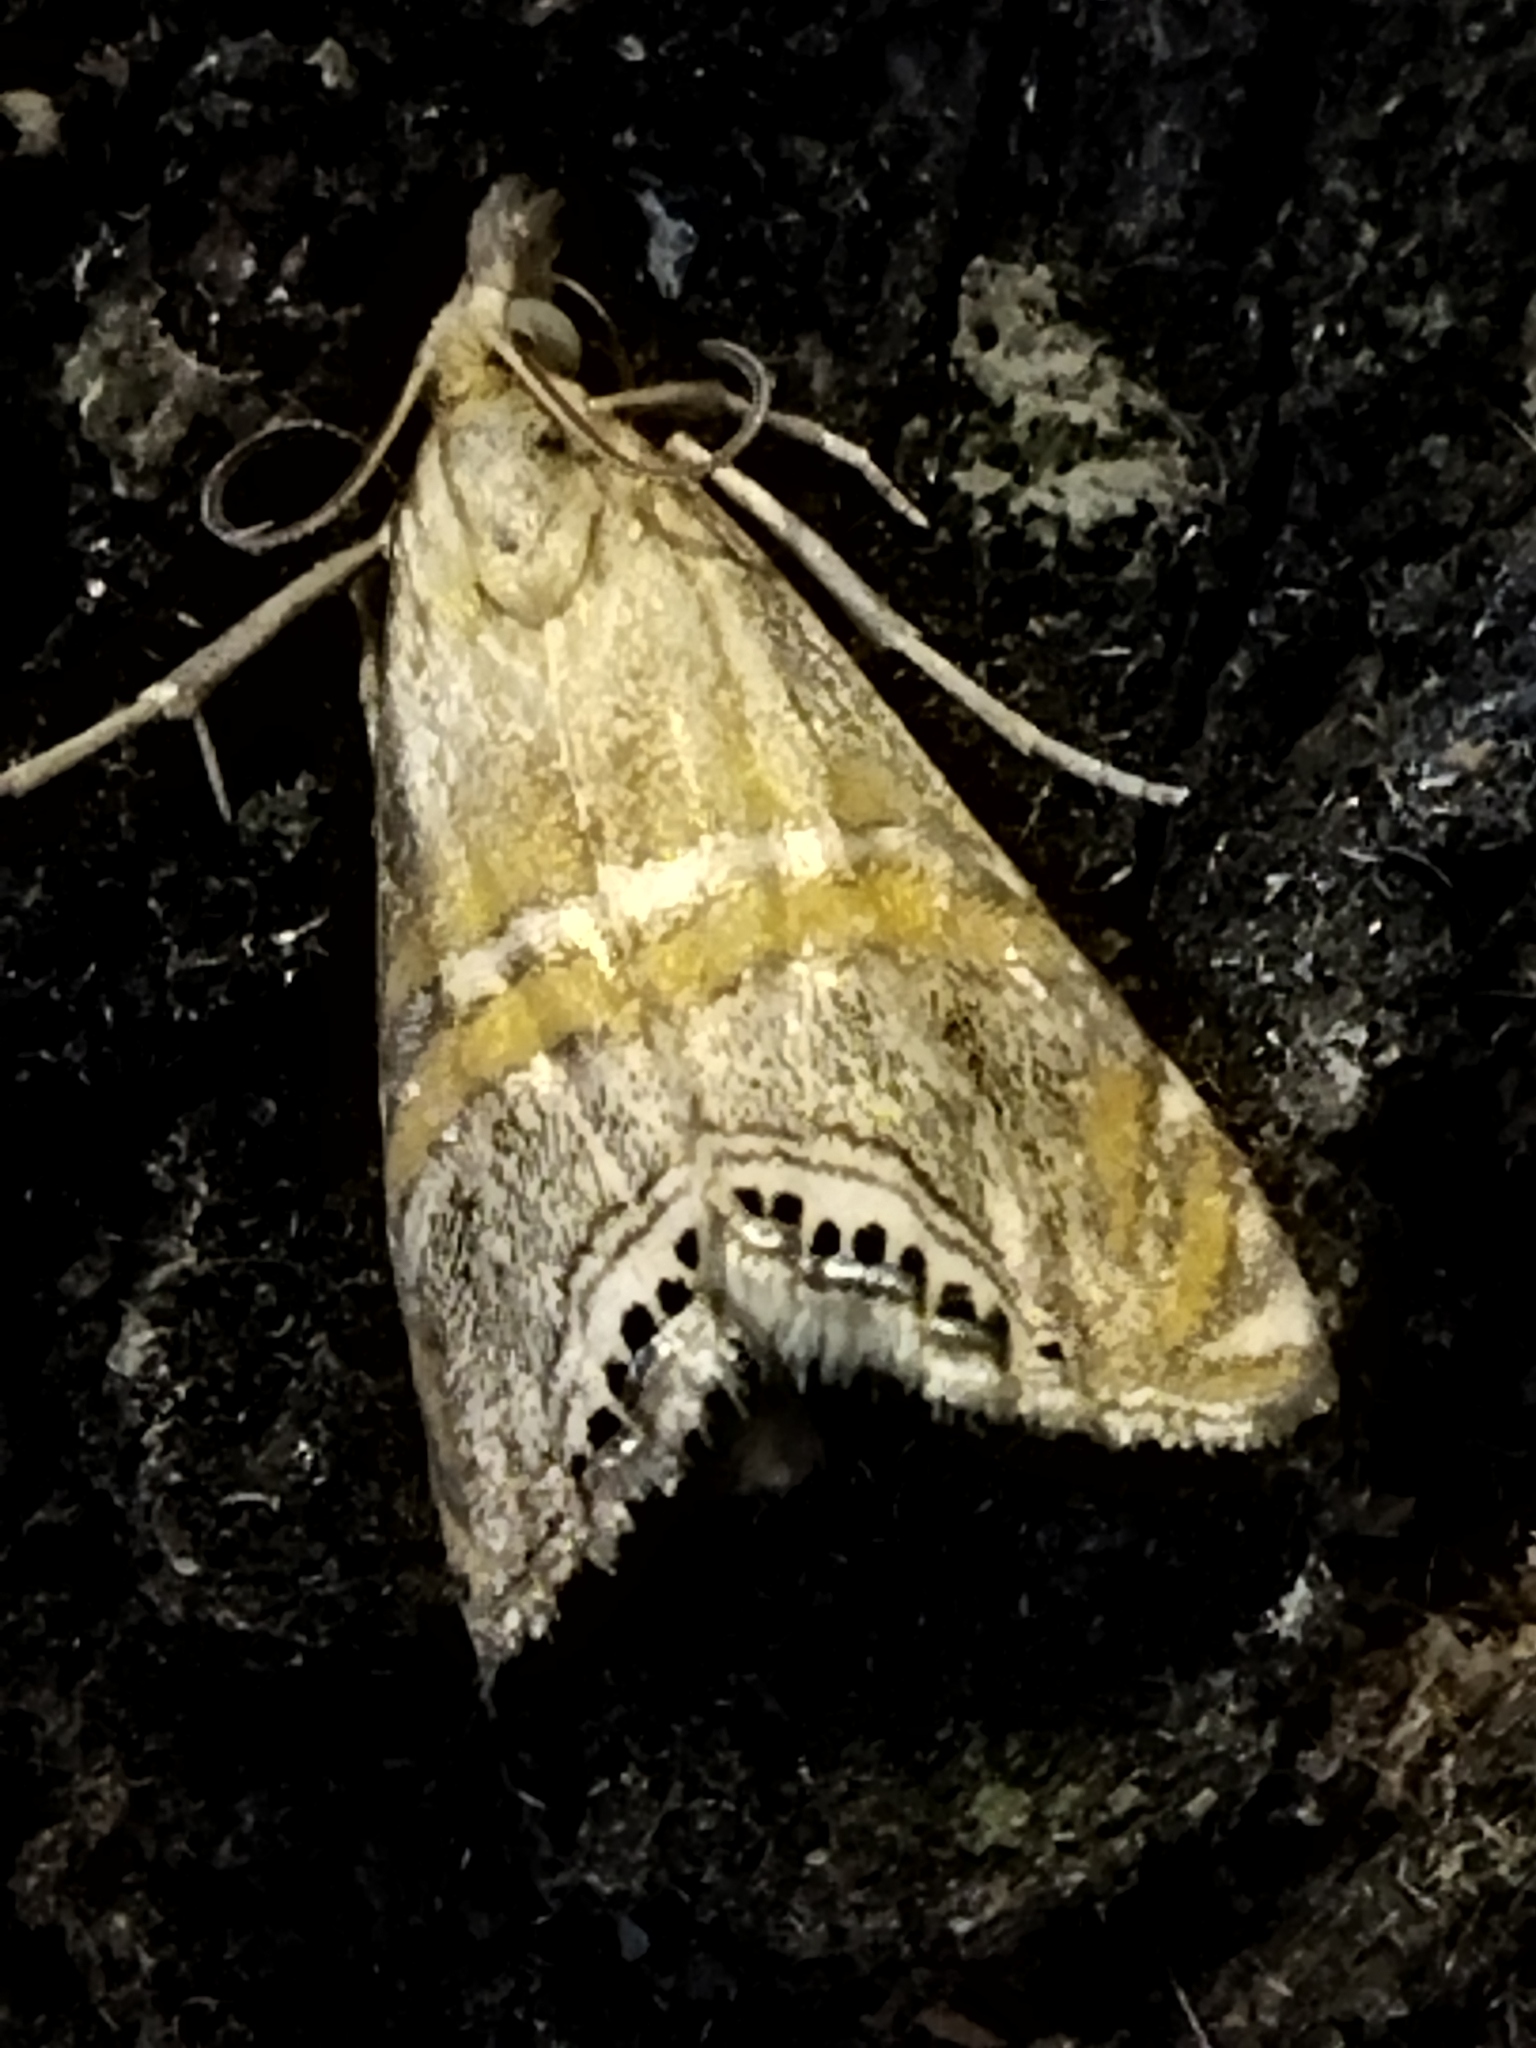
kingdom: Animalia
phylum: Arthropoda
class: Insecta
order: Lepidoptera
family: Crambidae
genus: Euchromius
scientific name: Euchromius bella
